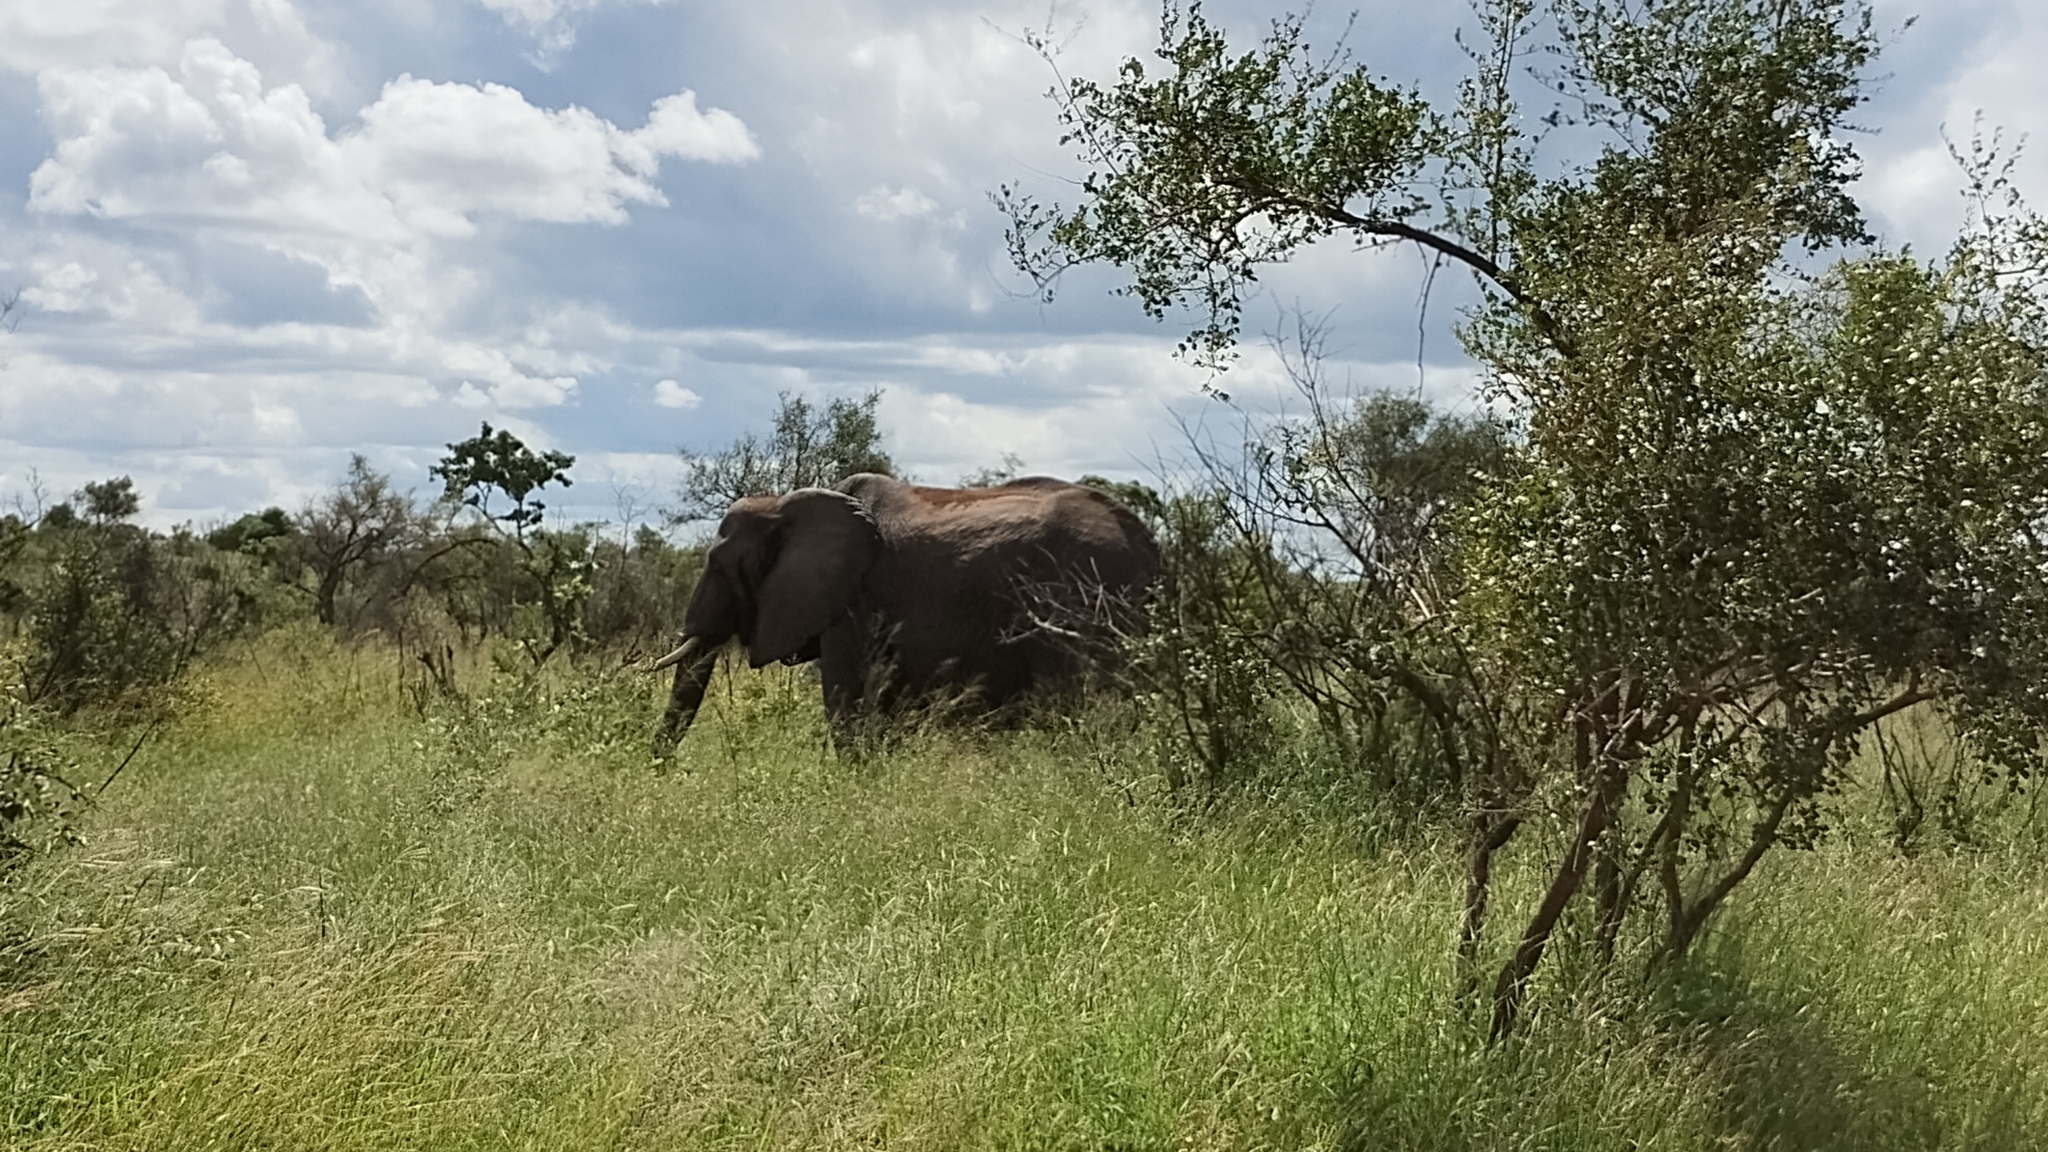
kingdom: Animalia
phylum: Chordata
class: Mammalia
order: Proboscidea
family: Elephantidae
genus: Loxodonta
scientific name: Loxodonta africana
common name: African elephant
